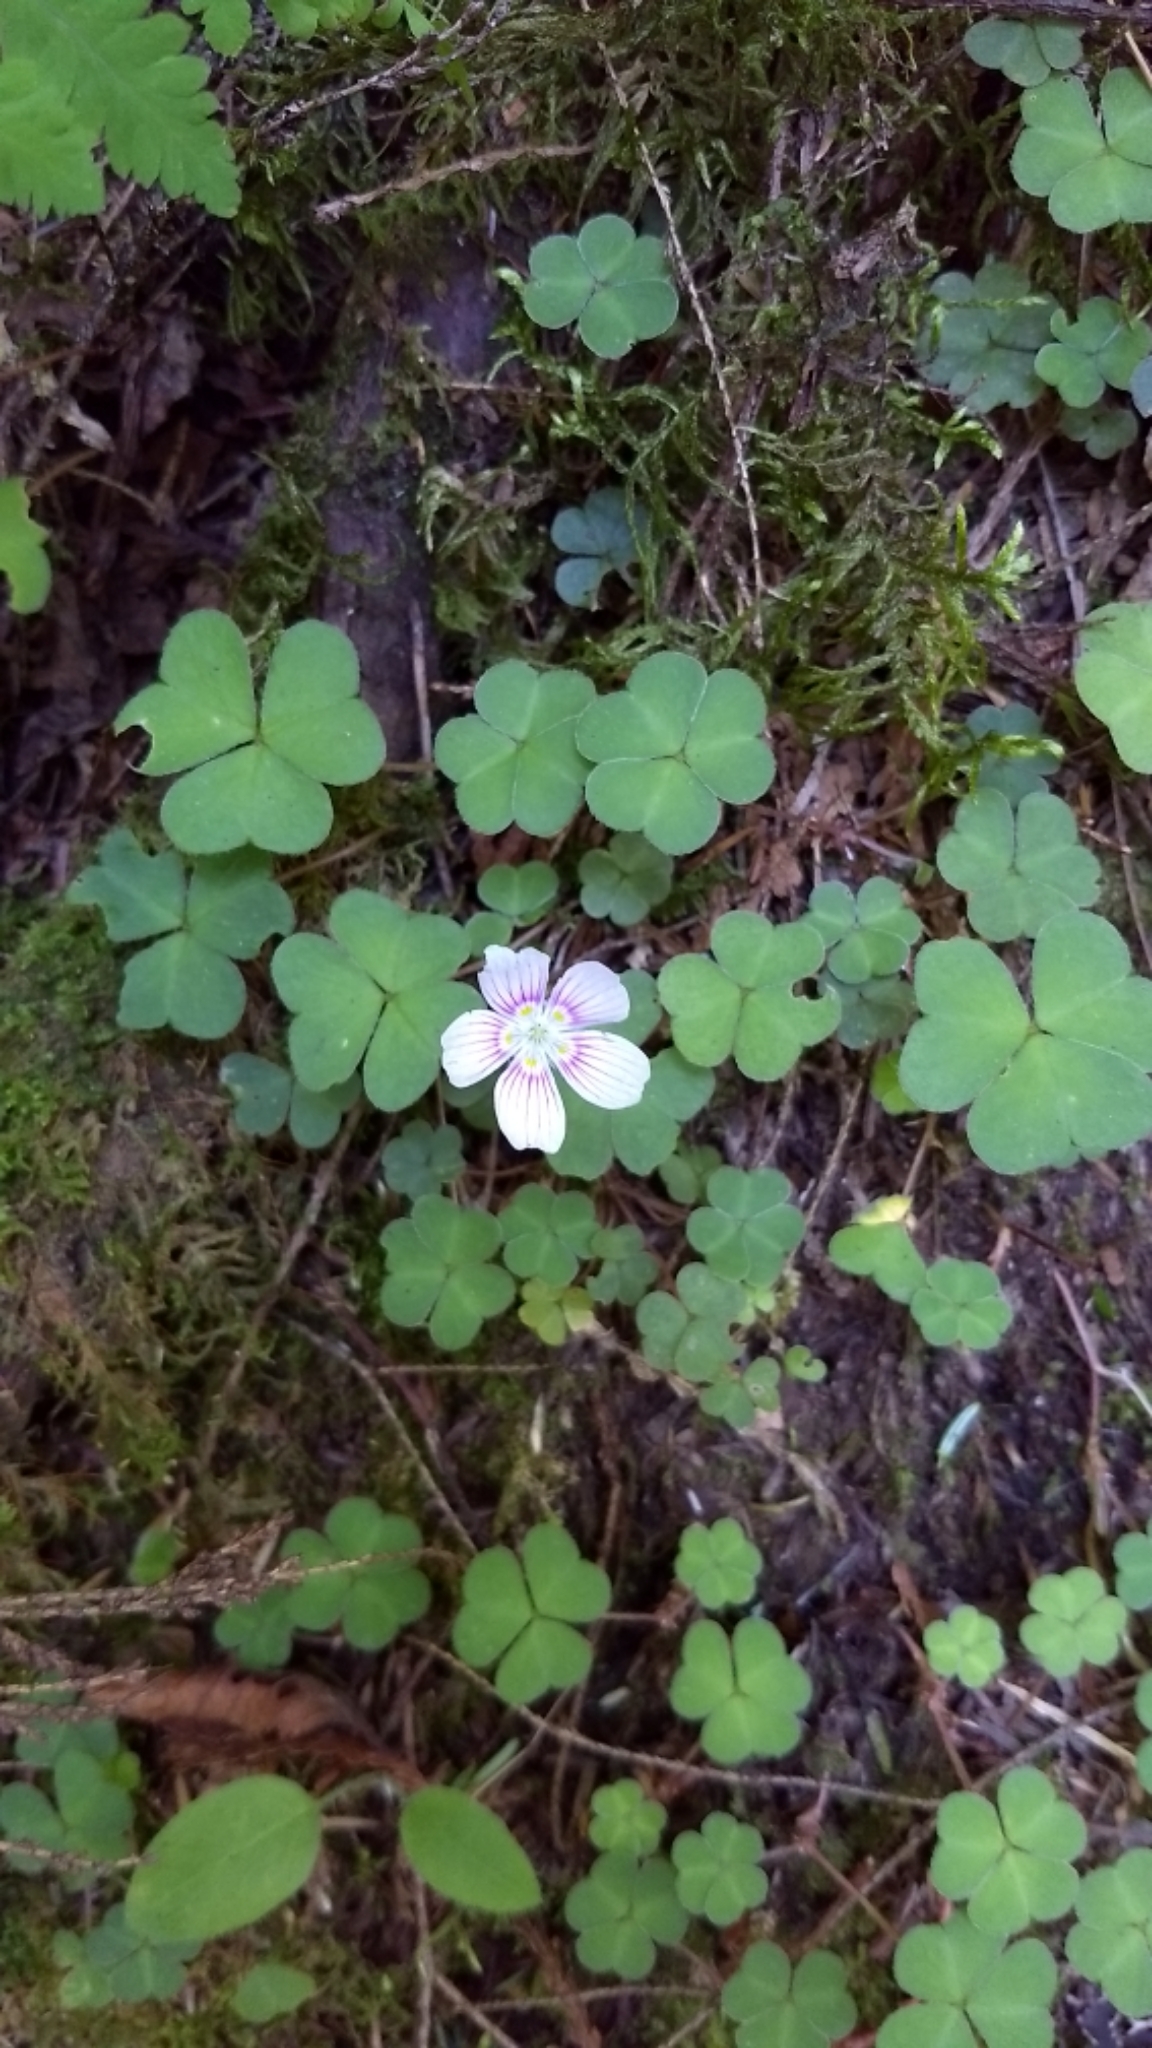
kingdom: Plantae
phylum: Tracheophyta
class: Magnoliopsida
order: Oxalidales
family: Oxalidaceae
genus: Oxalis
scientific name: Oxalis montana
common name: American wood-sorrel
